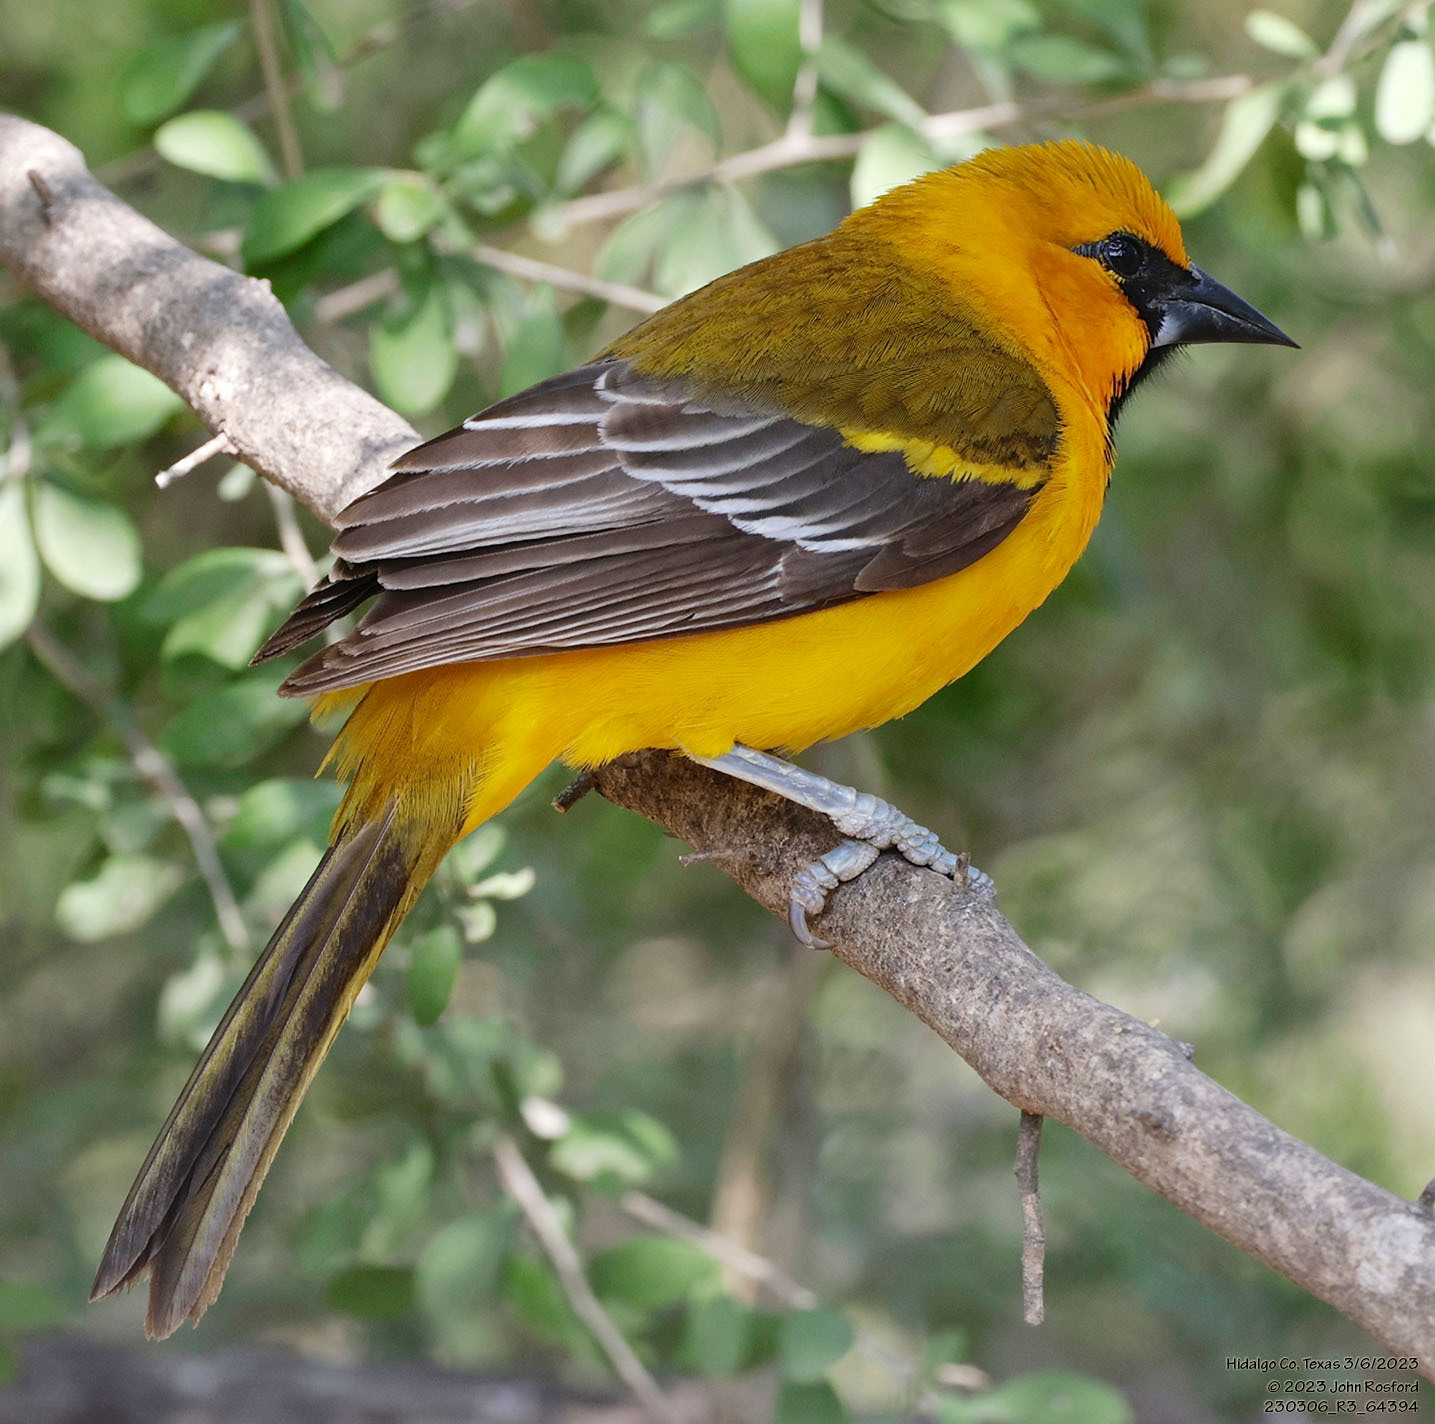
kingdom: Animalia
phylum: Chordata
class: Aves
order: Passeriformes
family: Icteridae
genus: Icterus
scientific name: Icterus gularis
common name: Altamira oriole
